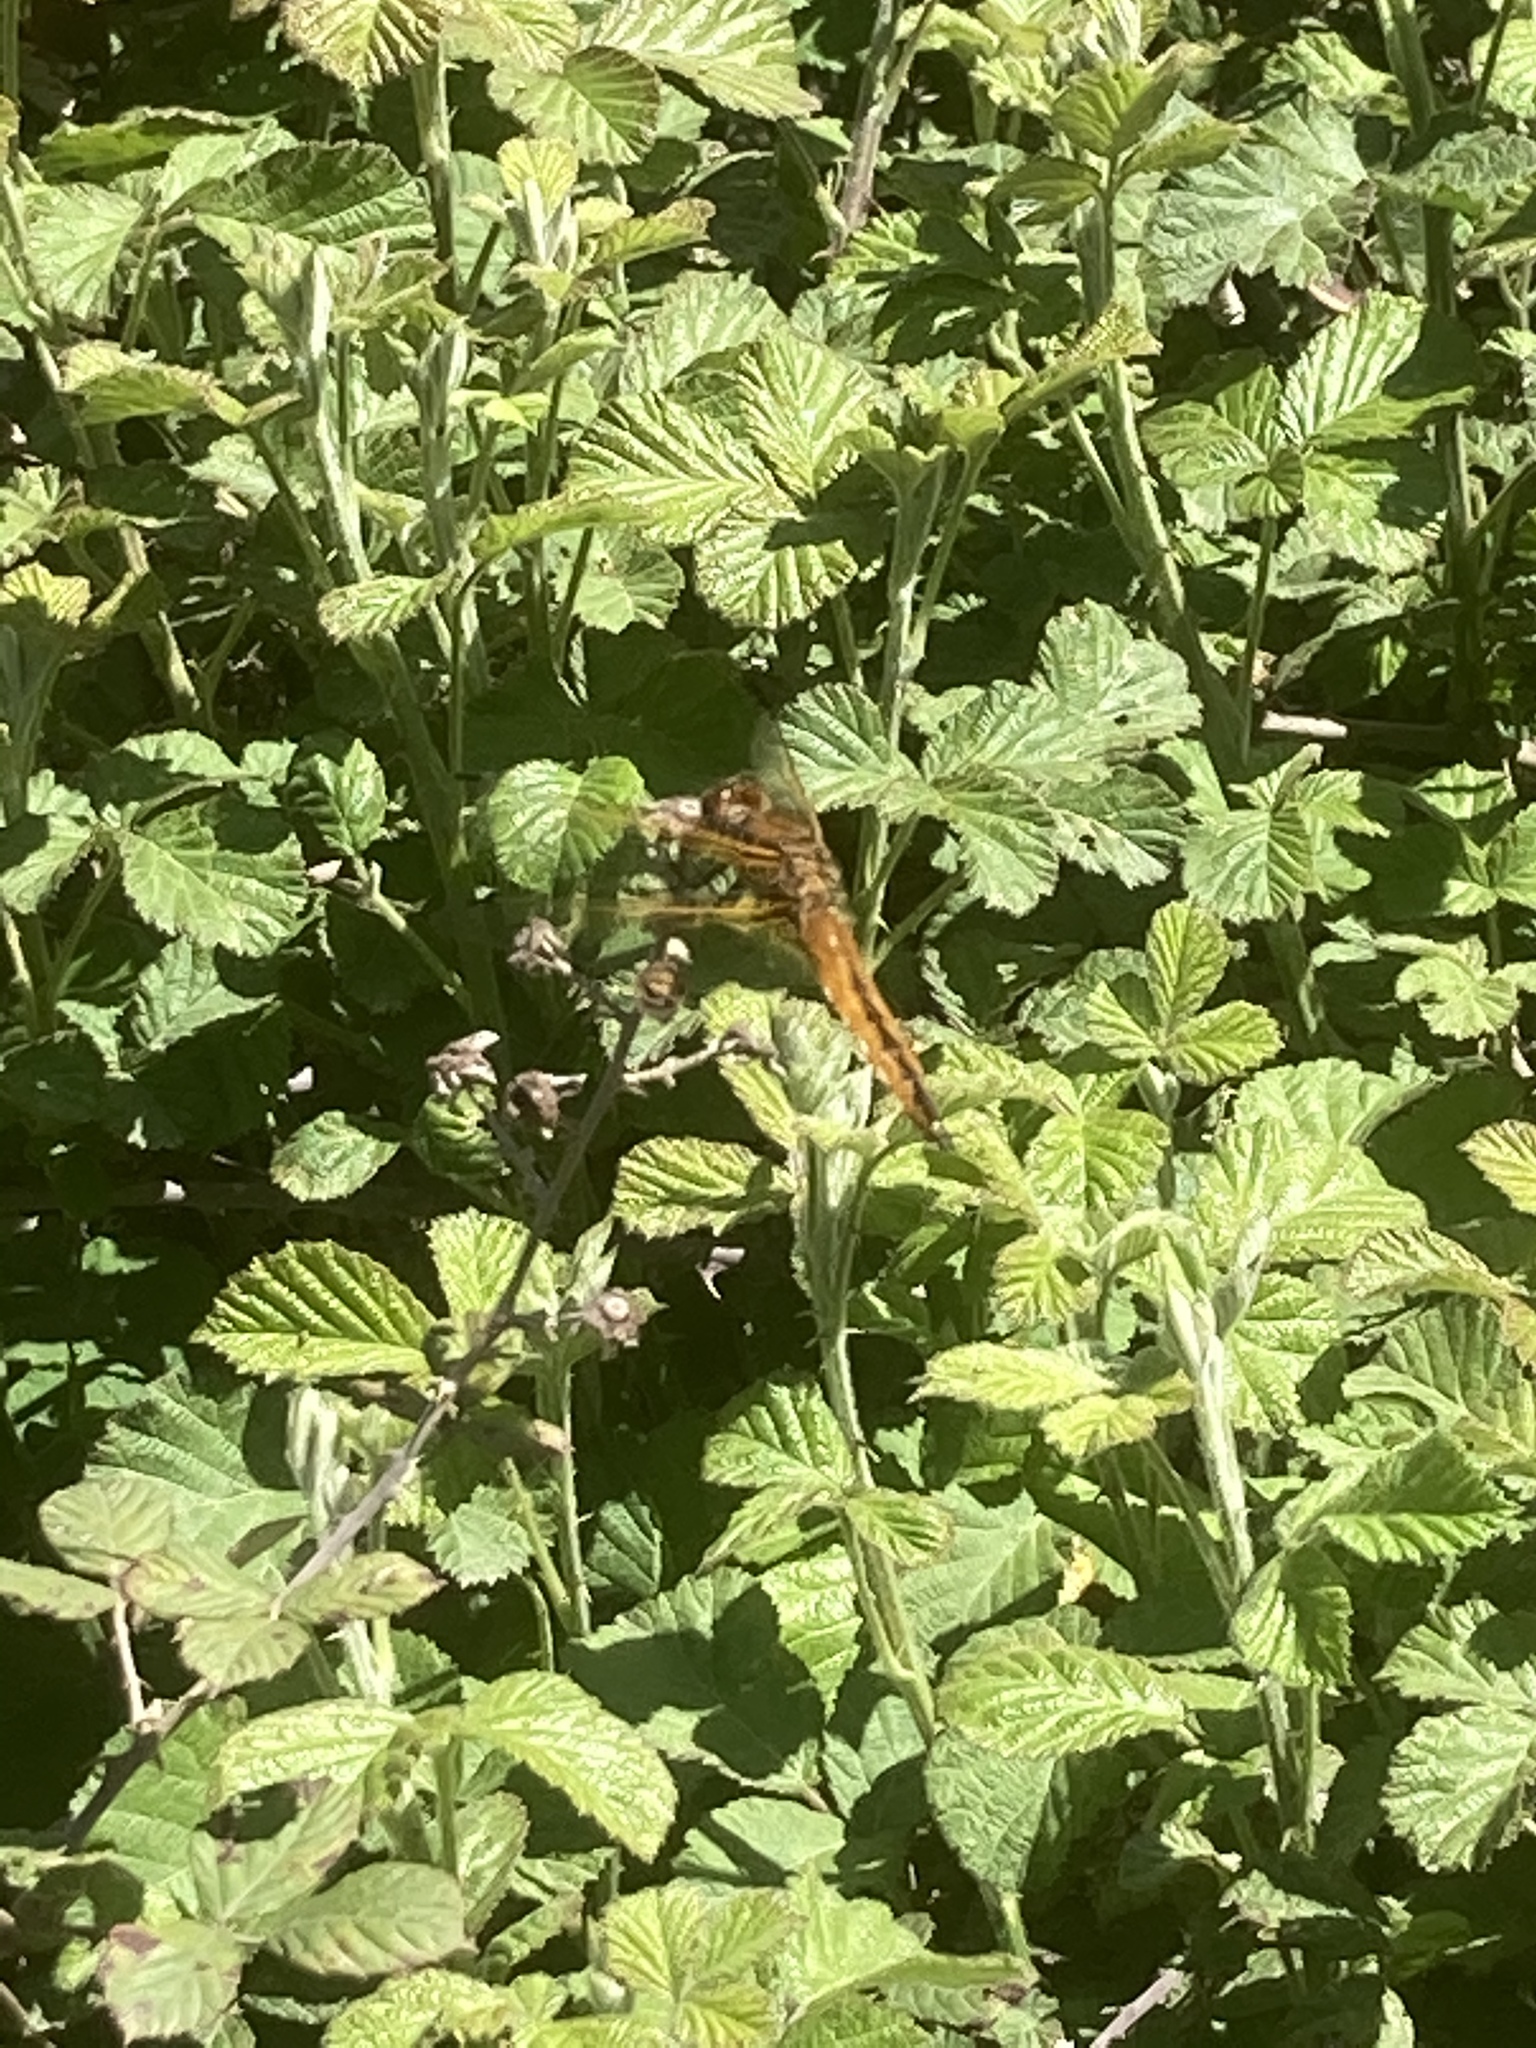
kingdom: Animalia
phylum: Arthropoda
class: Insecta
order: Odonata
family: Libellulidae
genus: Libellula
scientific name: Libellula fulva
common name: Blue chaser
